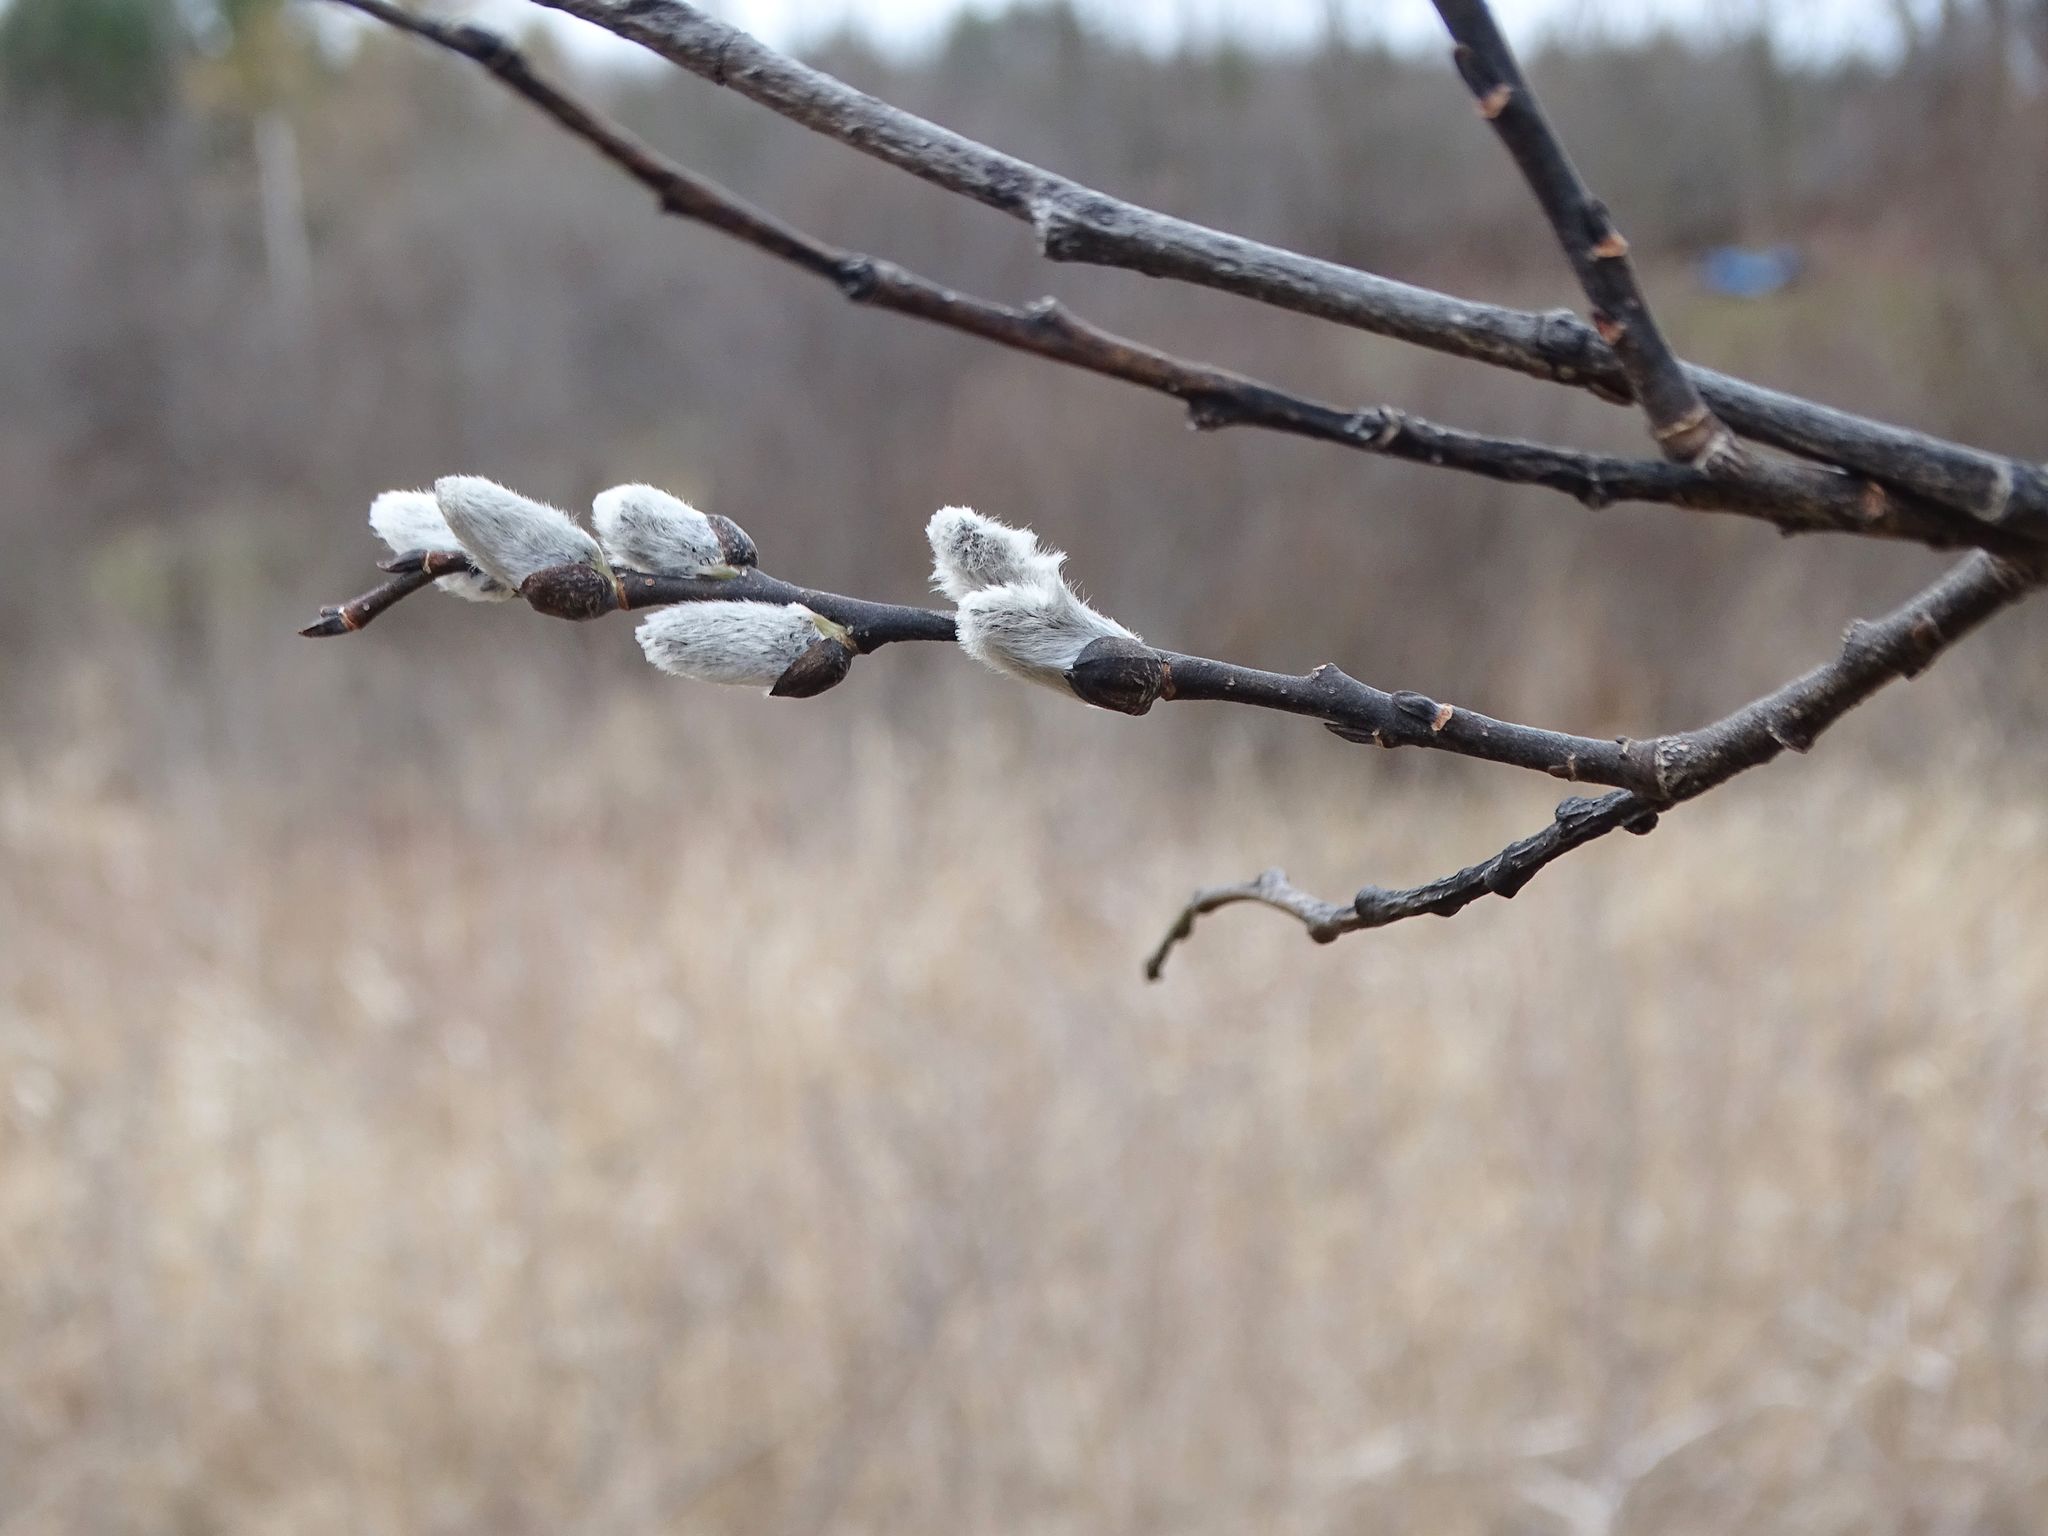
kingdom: Plantae
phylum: Tracheophyta
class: Magnoliopsida
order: Malpighiales
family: Salicaceae
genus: Salix
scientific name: Salix discolor
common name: Glaucous willow
